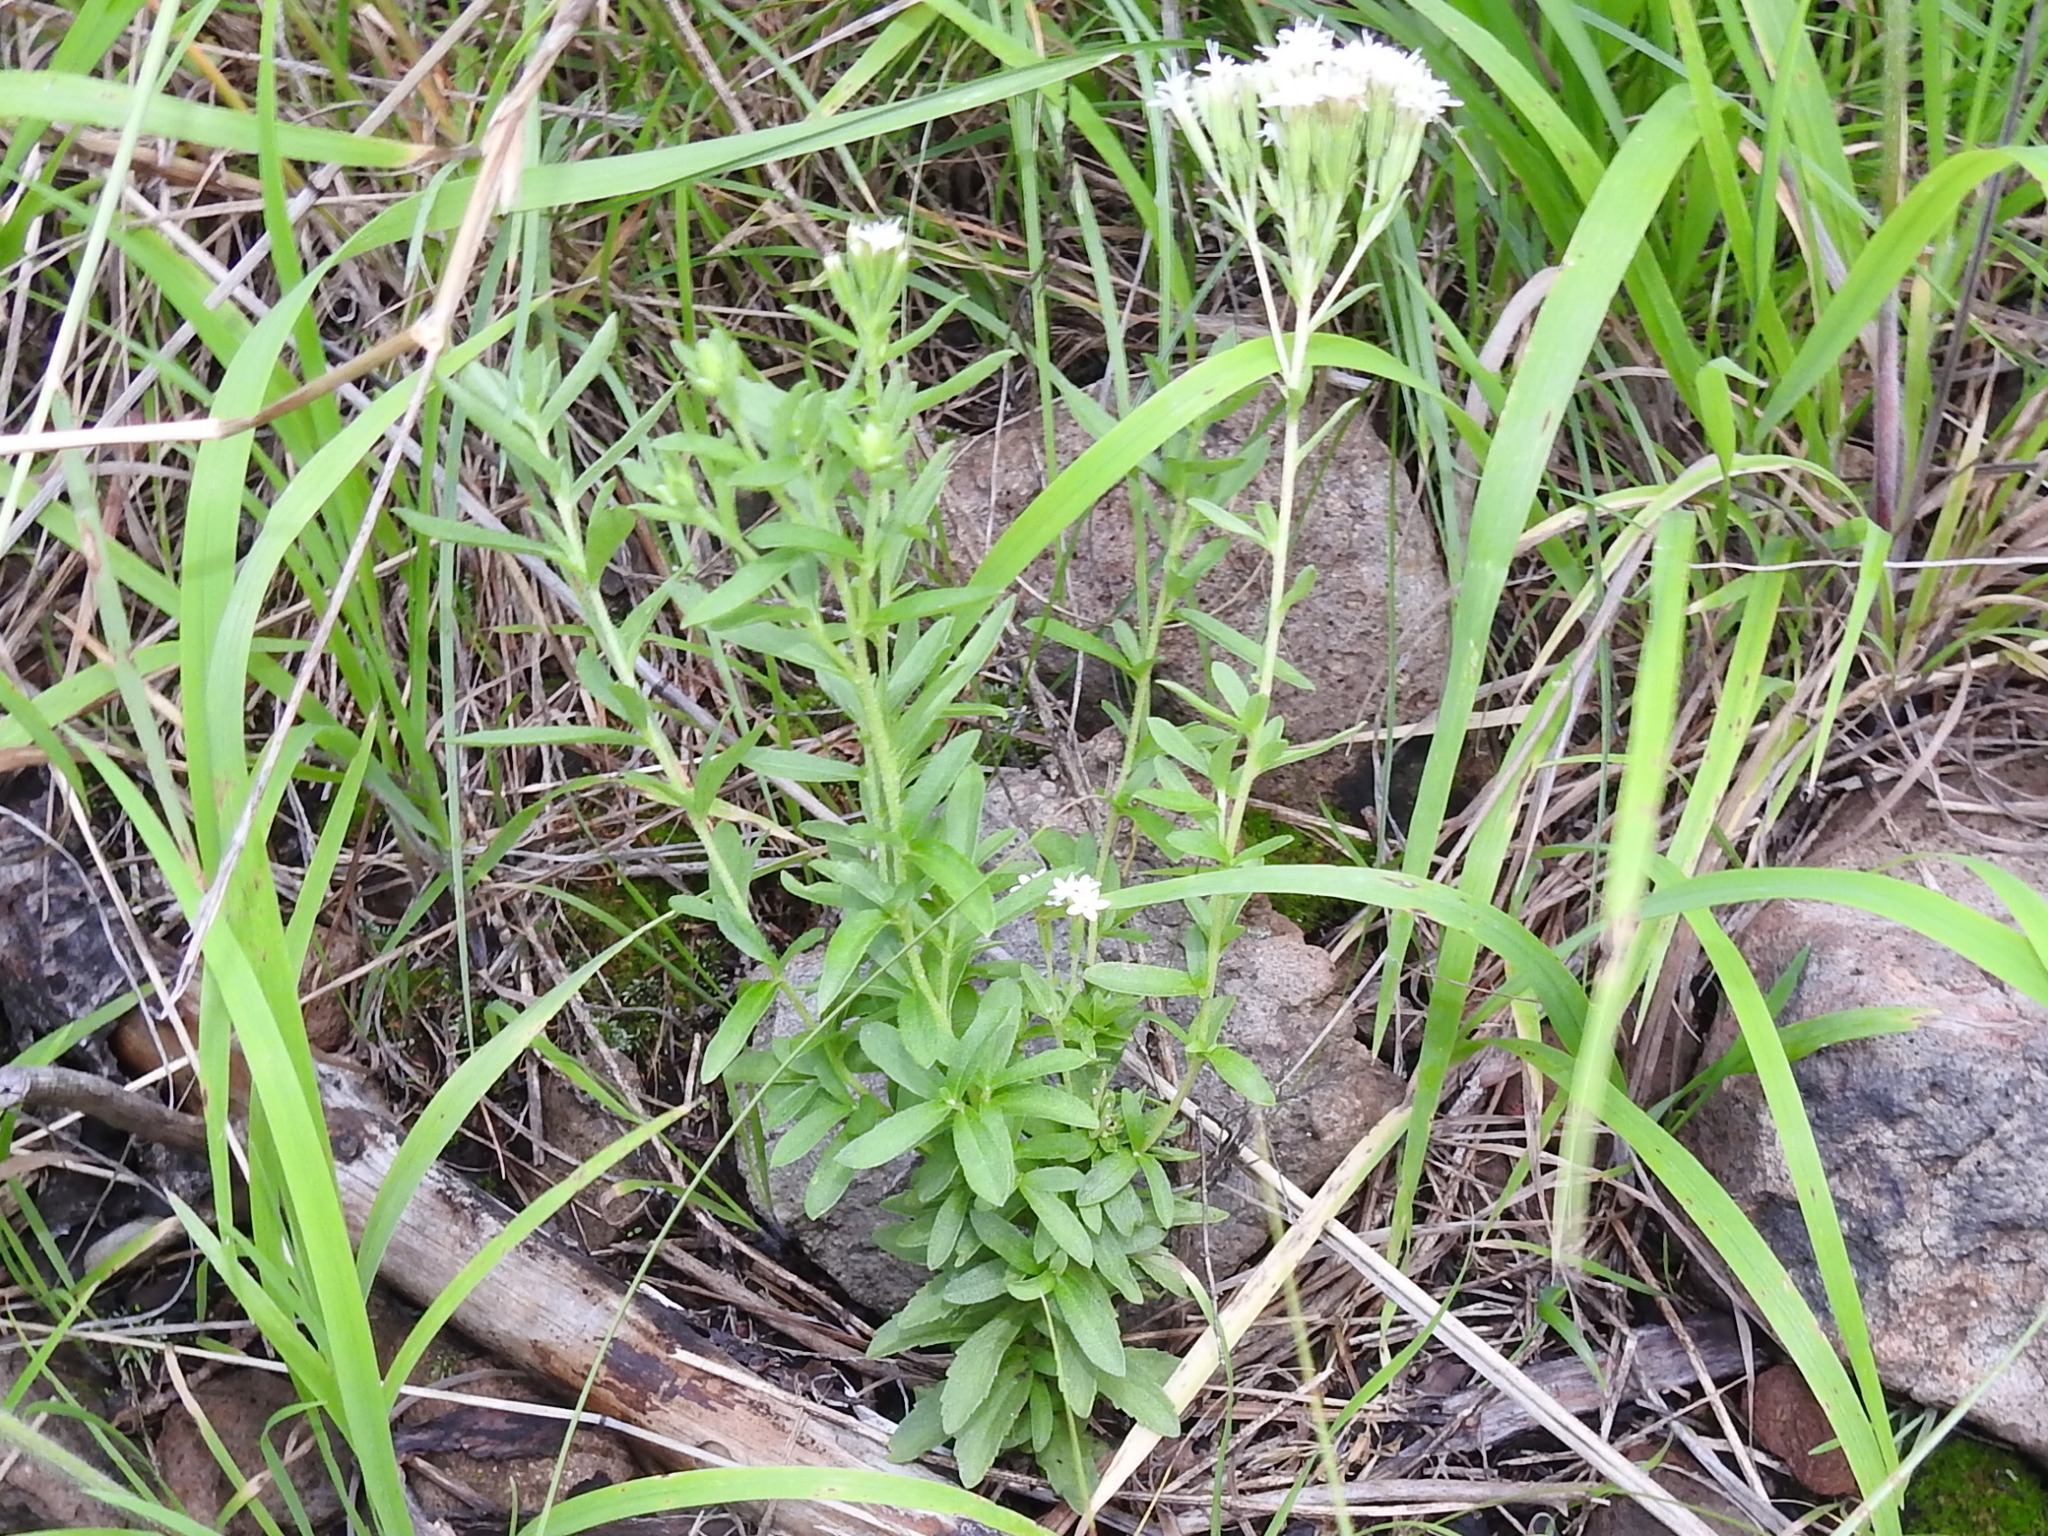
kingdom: Plantae
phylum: Tracheophyta
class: Magnoliopsida
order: Asterales
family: Asteraceae
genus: Stevia
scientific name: Stevia serrata
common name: Sawtooth candyleaf
